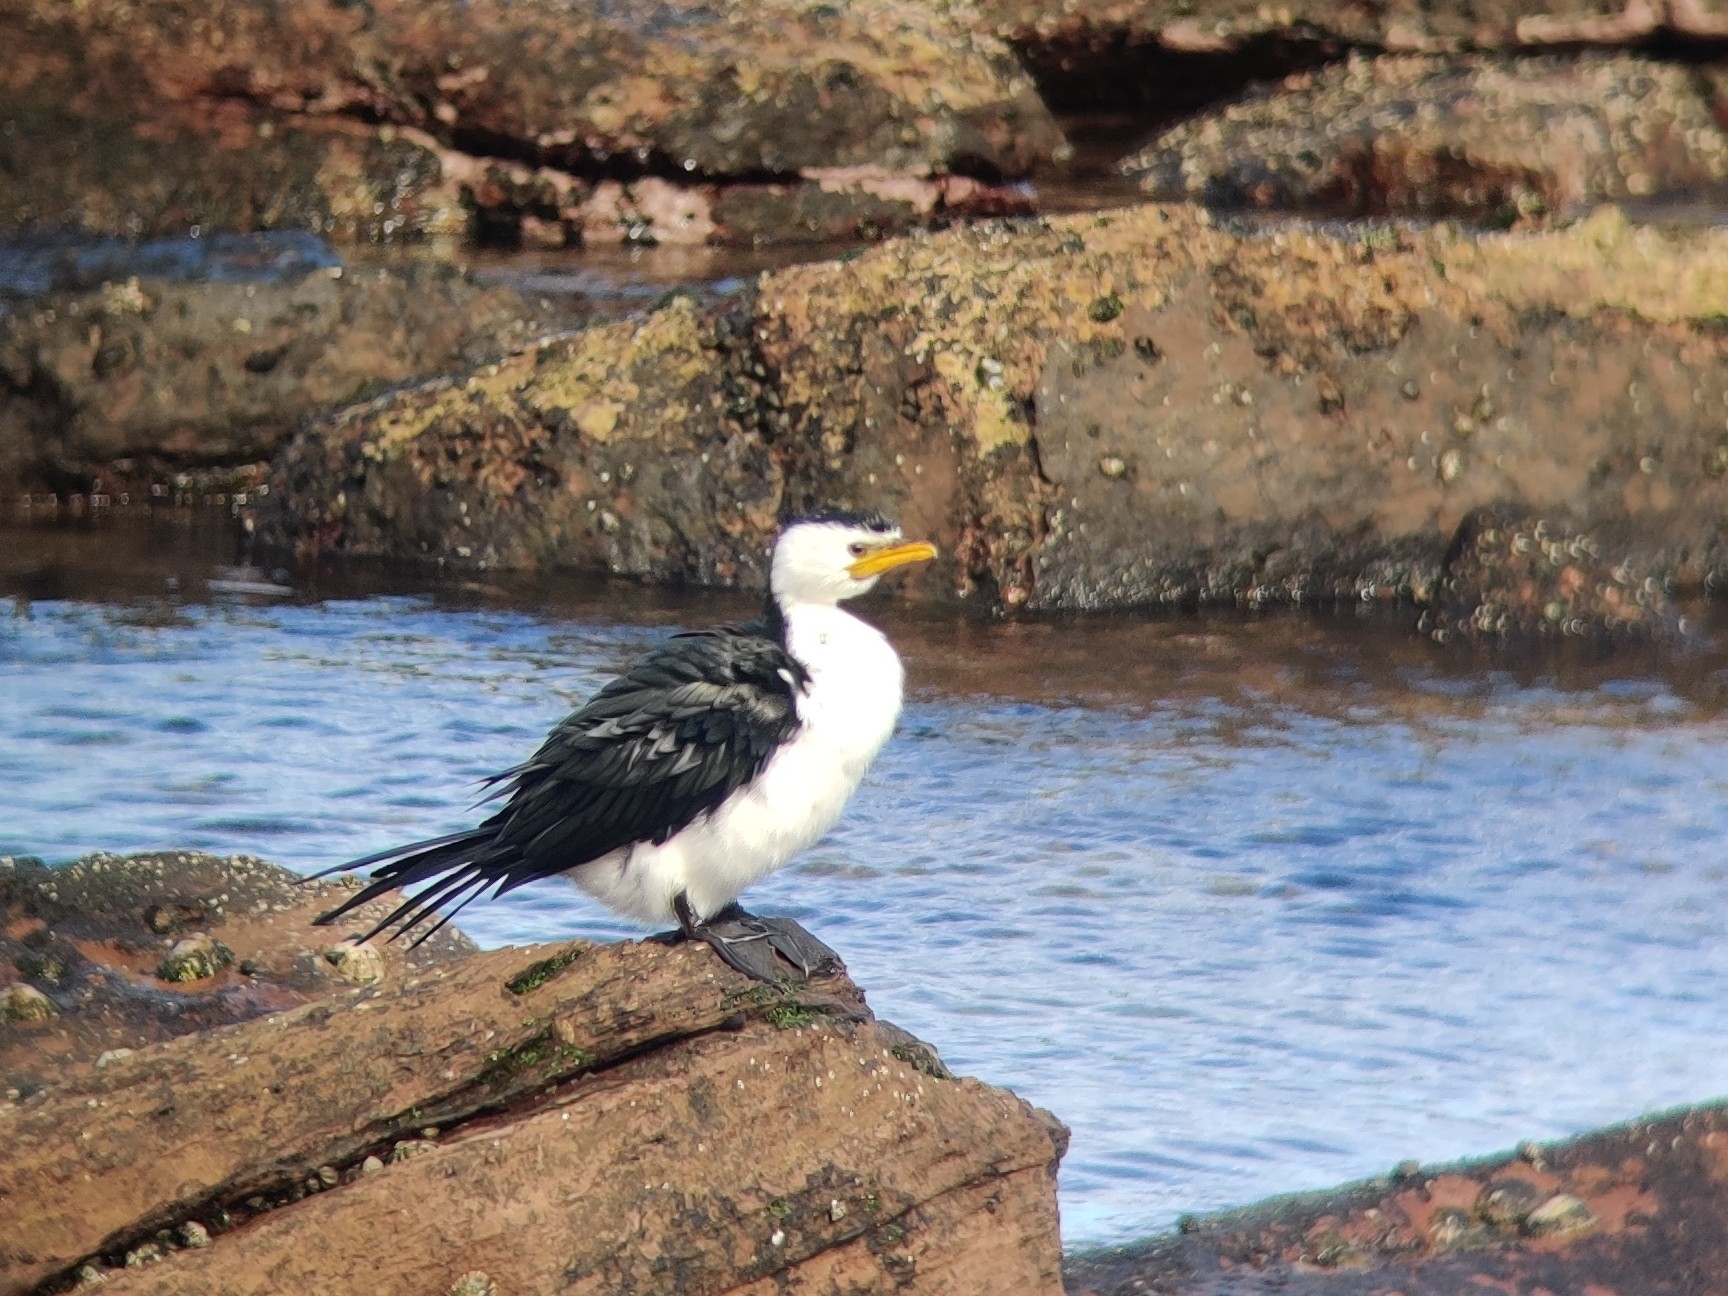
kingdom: Animalia
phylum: Chordata
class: Aves
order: Suliformes
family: Phalacrocoracidae
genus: Microcarbo
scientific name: Microcarbo melanoleucos
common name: Little pied cormorant
